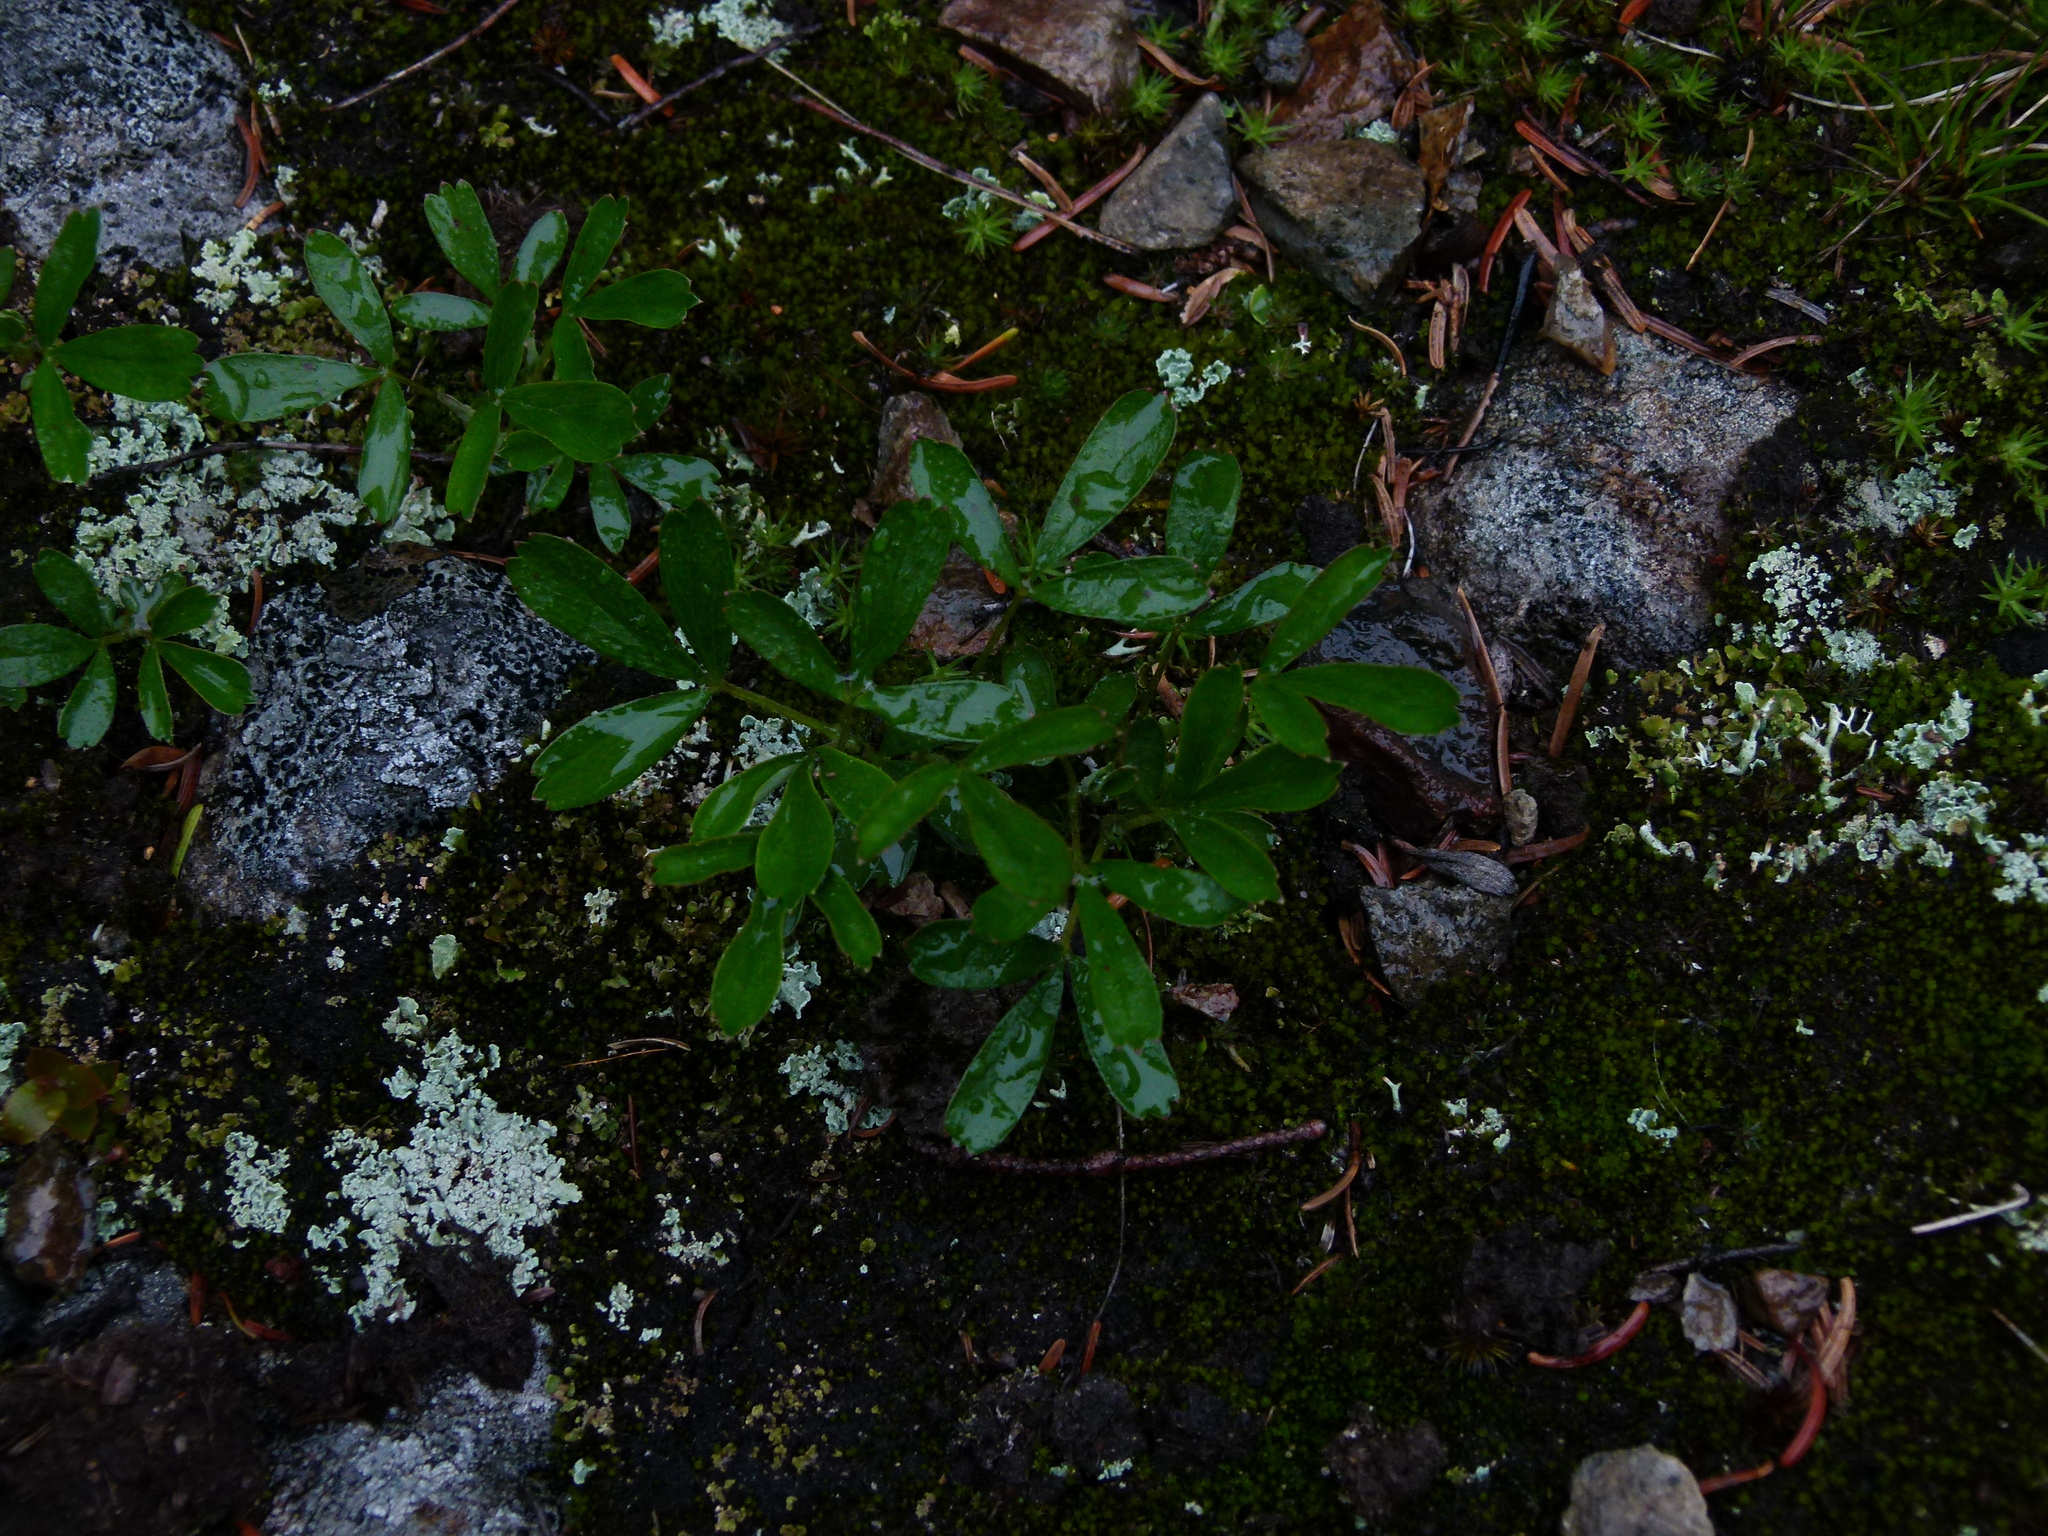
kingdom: Plantae
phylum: Tracheophyta
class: Magnoliopsida
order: Rosales
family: Rosaceae
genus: Sibbaldia
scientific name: Sibbaldia tridentata
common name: Three-toothed cinquefoil
